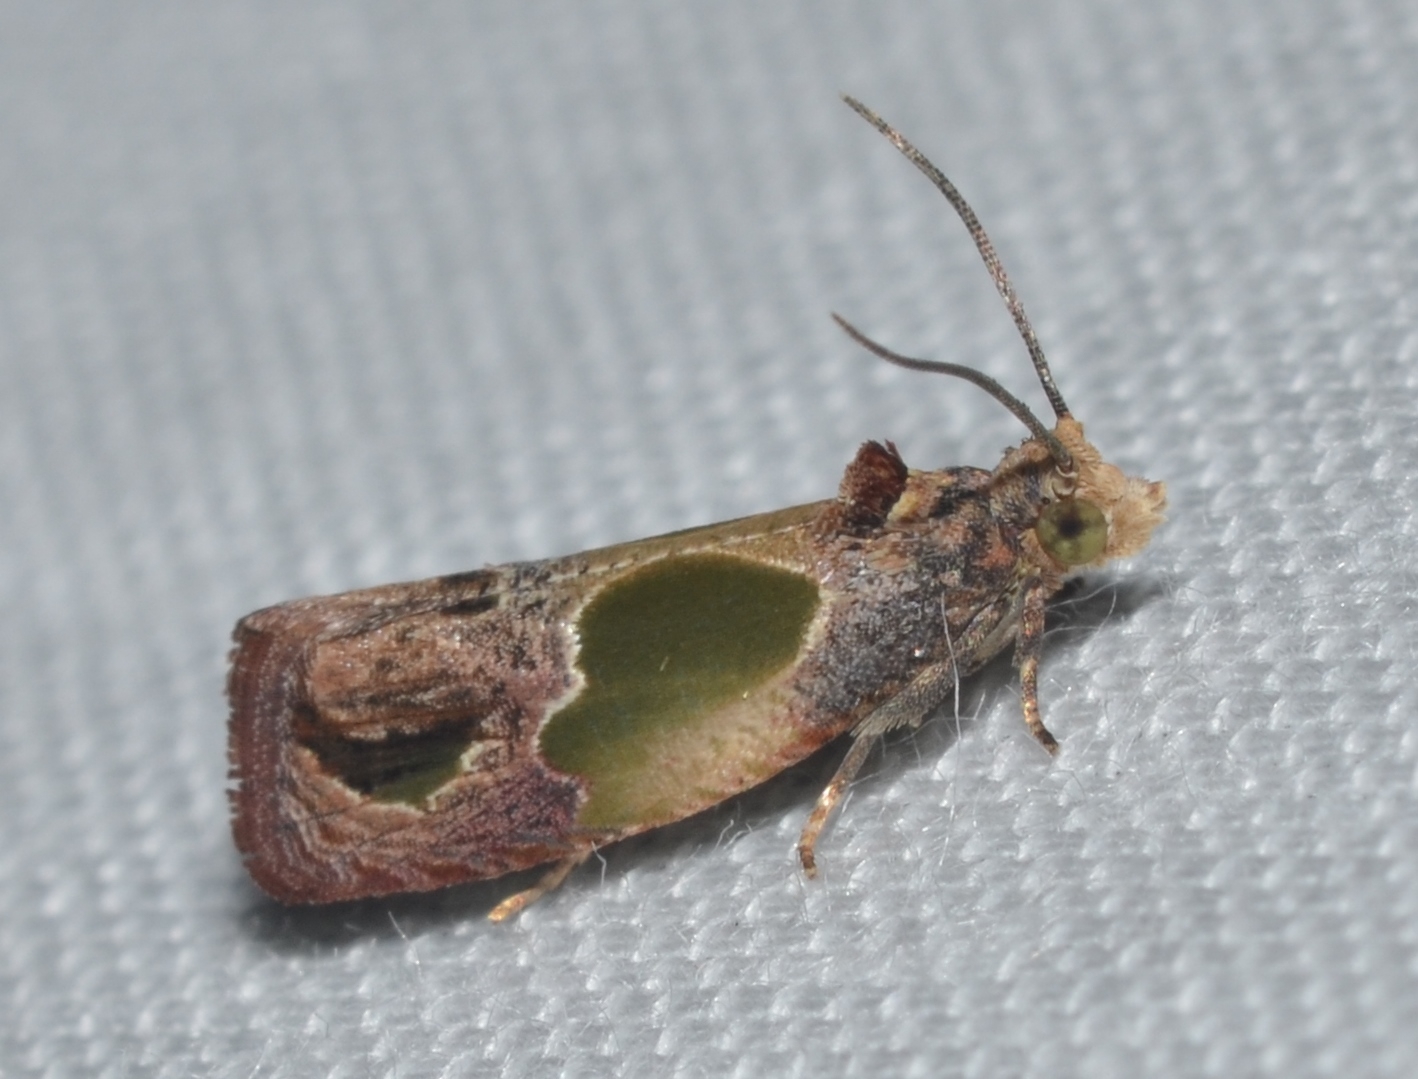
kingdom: Animalia
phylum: Arthropoda
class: Insecta
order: Lepidoptera
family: Tortricidae
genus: Eumarozia
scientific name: Eumarozia malachitana
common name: Sculptured moth
